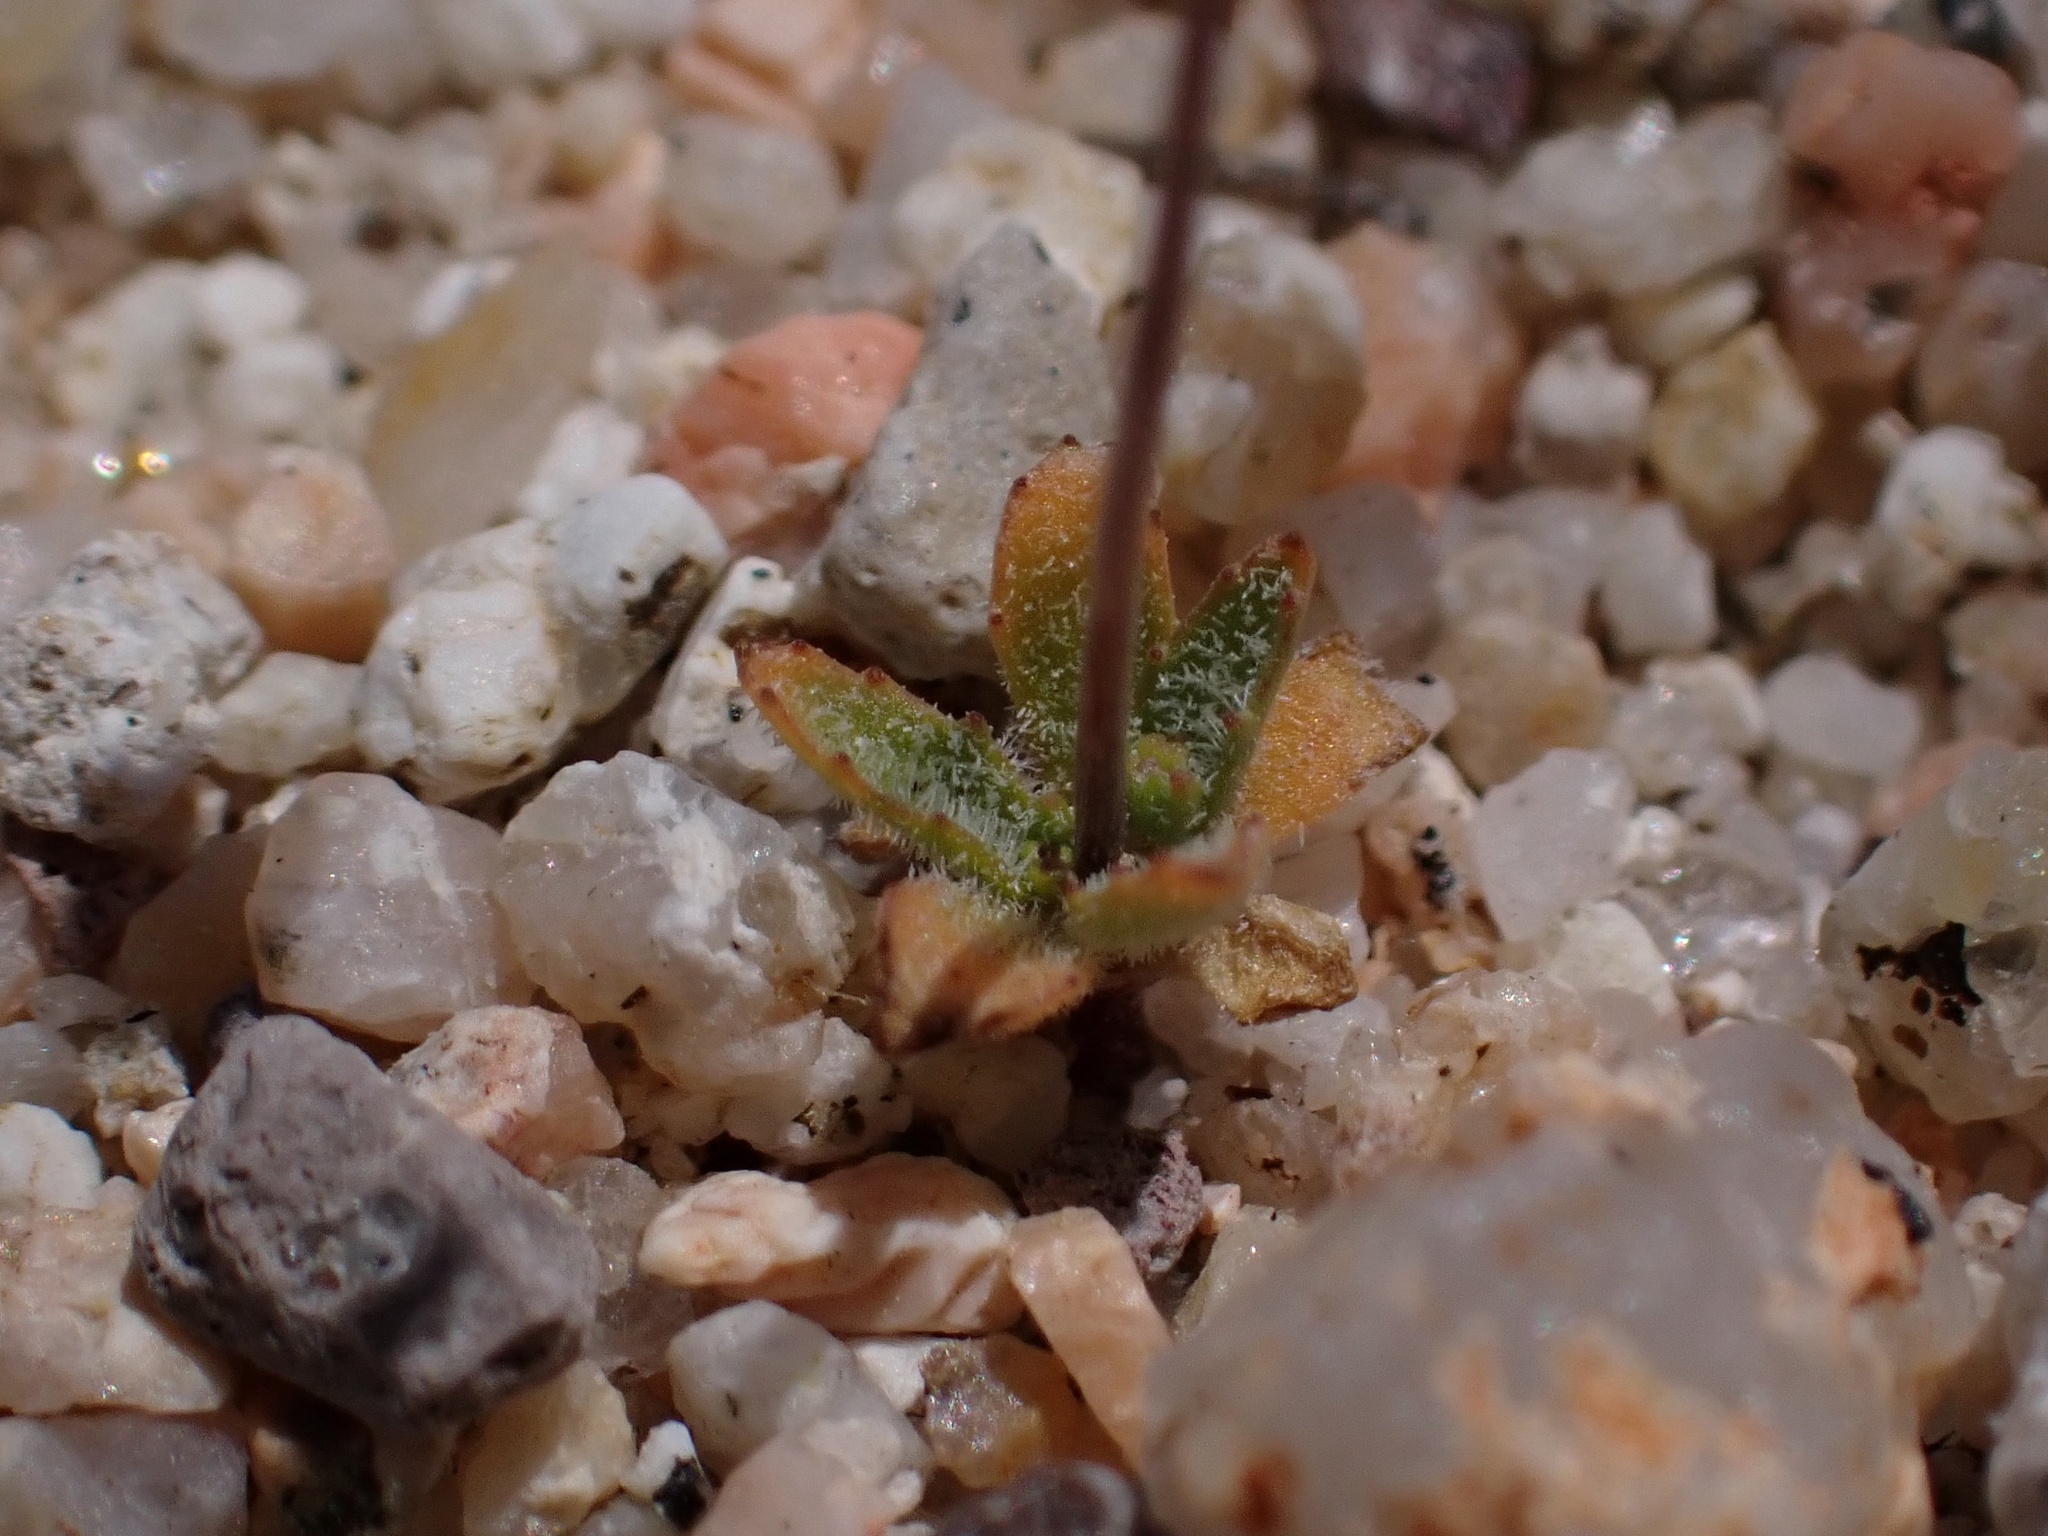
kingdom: Plantae
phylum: Tracheophyta
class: Magnoliopsida
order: Asterales
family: Campanulaceae
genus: Nemacladus
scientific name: Nemacladus eastwoodiae
